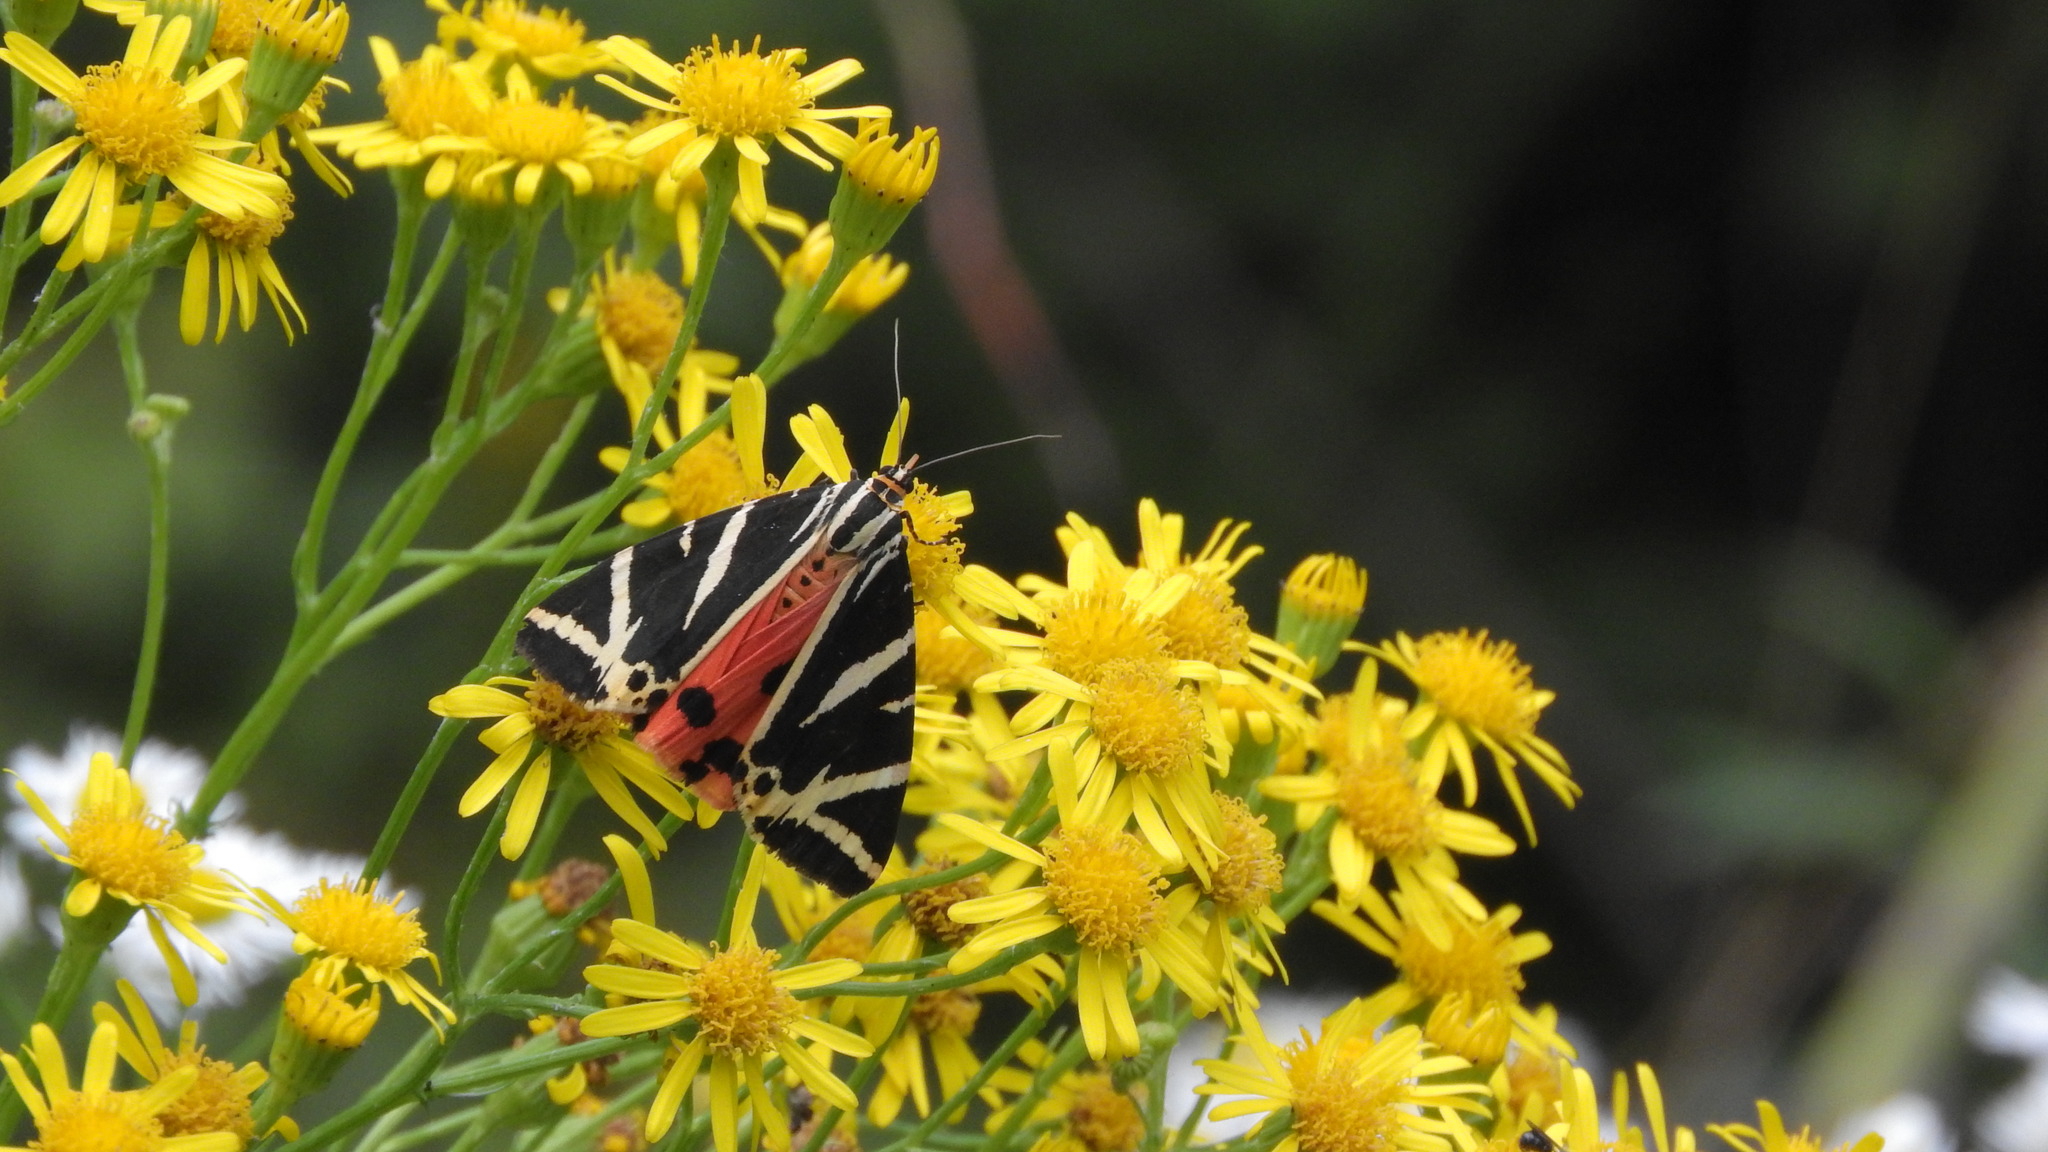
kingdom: Animalia
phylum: Arthropoda
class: Insecta
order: Lepidoptera
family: Erebidae
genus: Euplagia
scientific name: Euplagia quadripunctaria
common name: Jersey tiger
